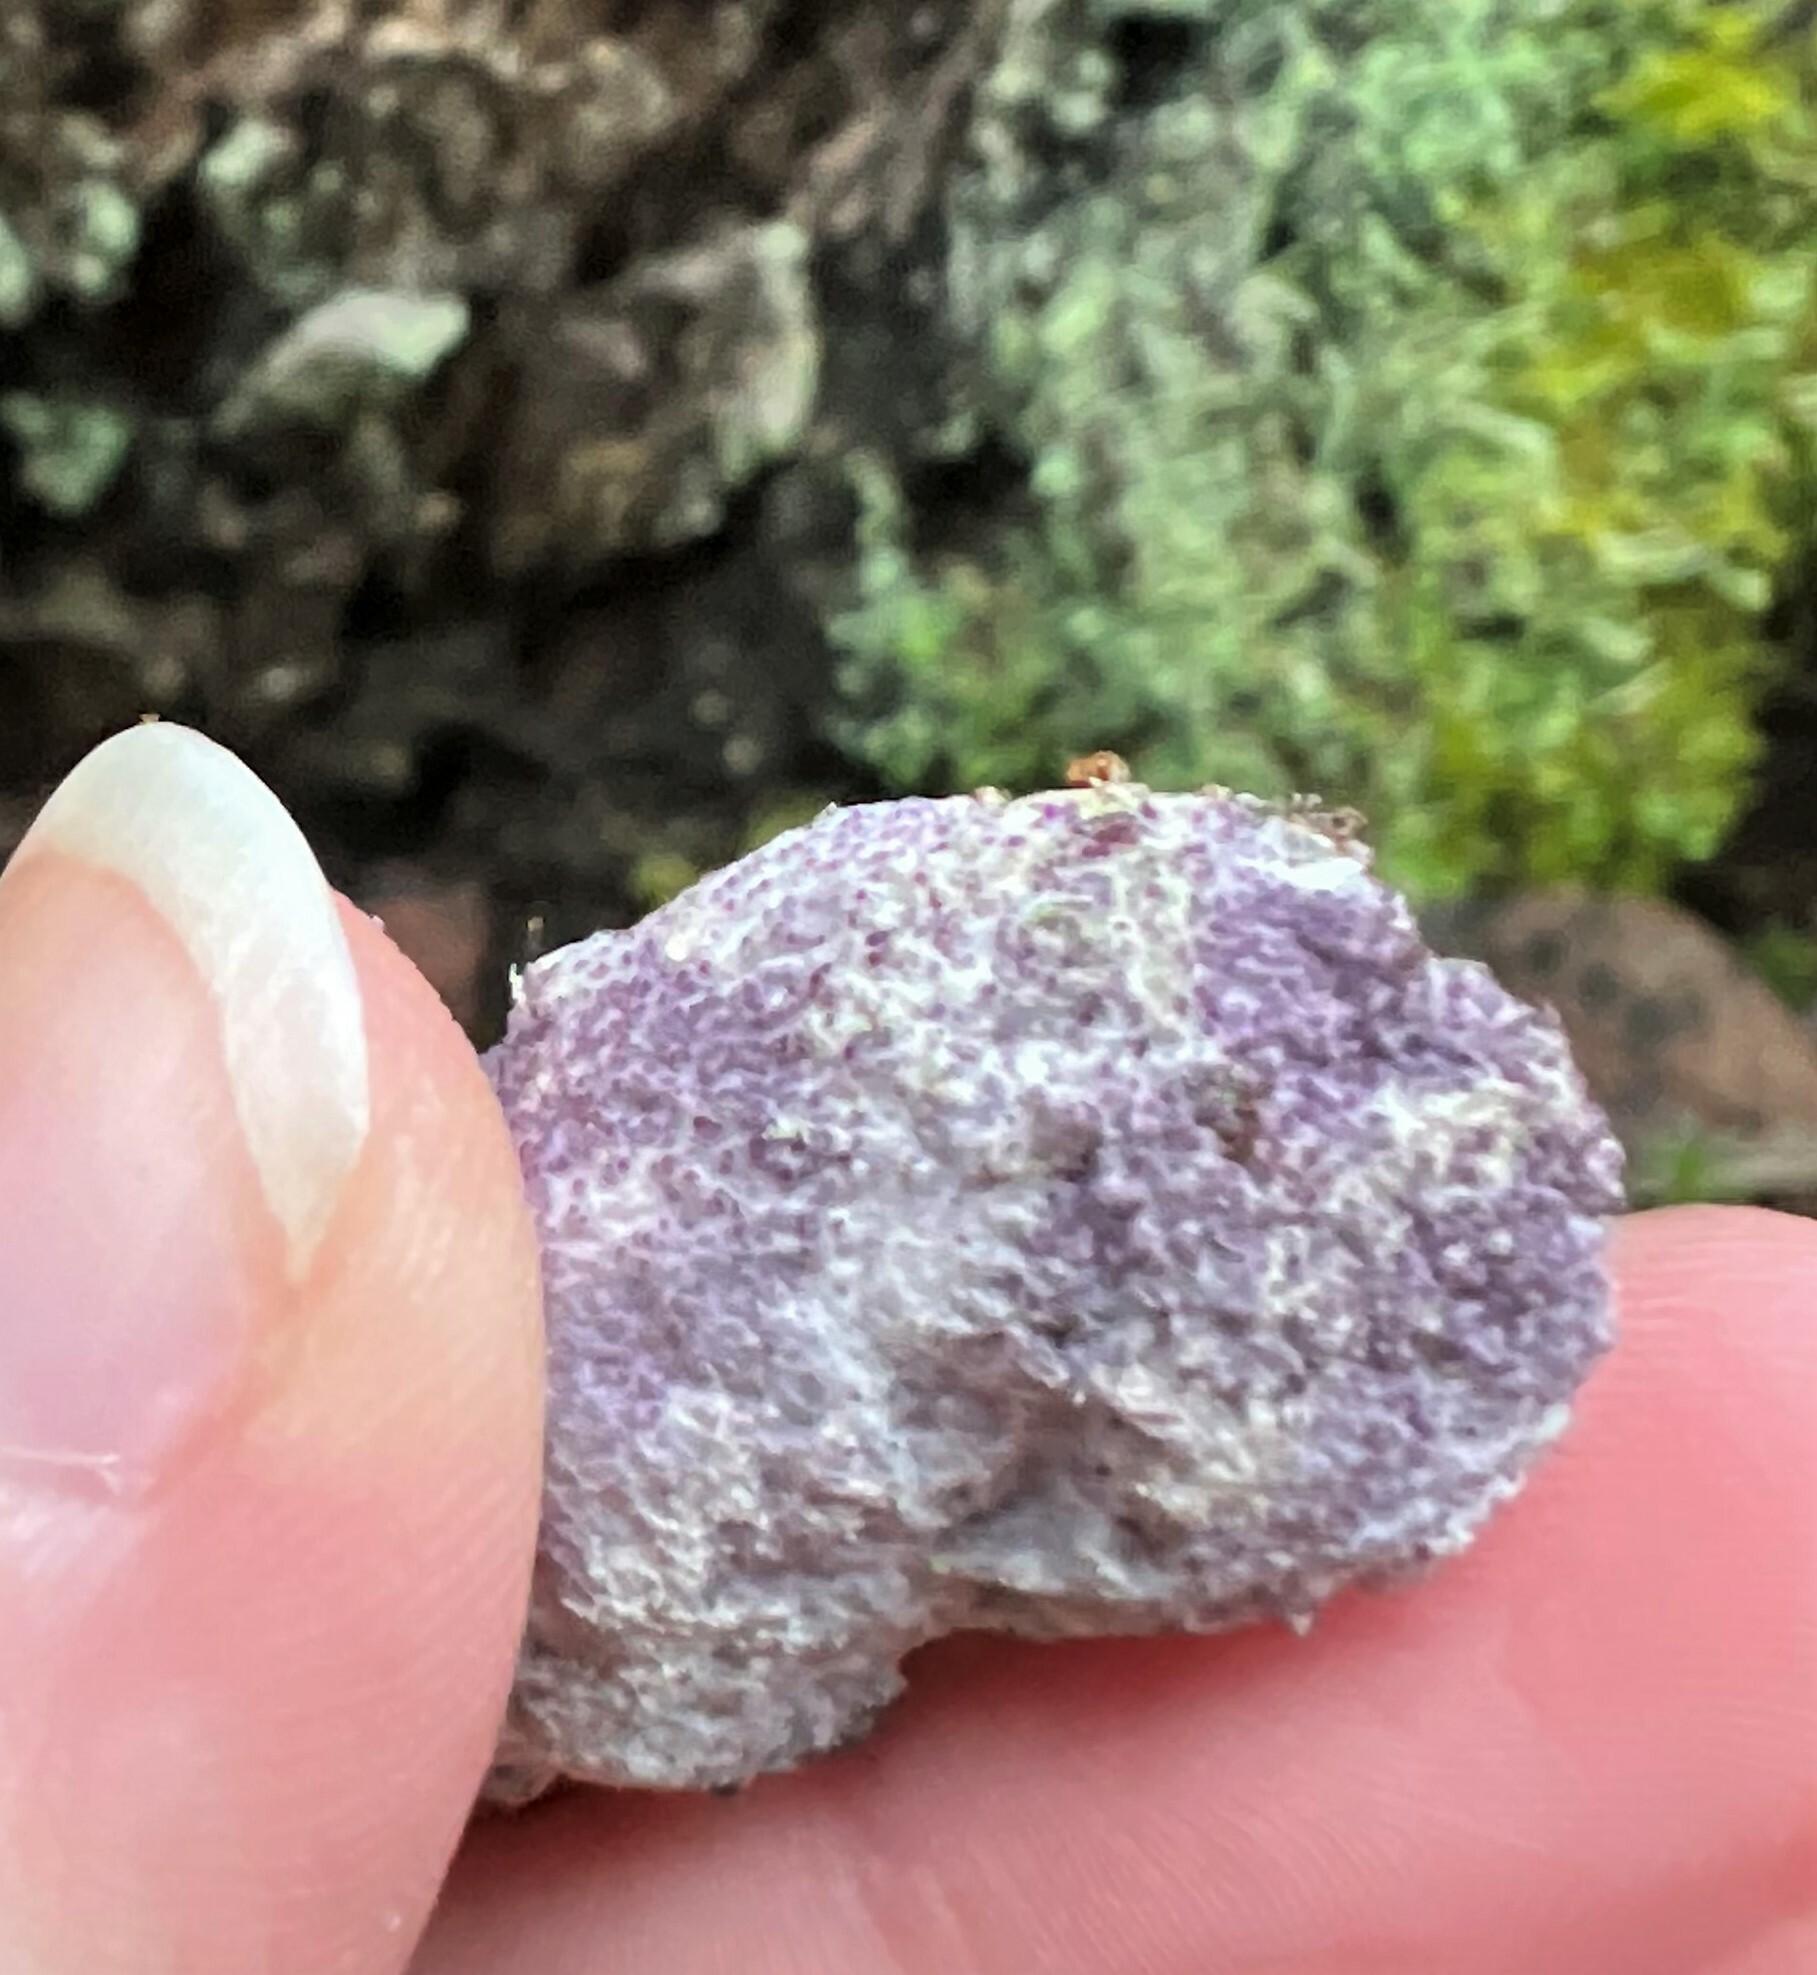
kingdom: Fungi
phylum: Ascomycota
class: Sordariomycetes
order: Hypocreales
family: Bionectriaceae
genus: Nectriopsis
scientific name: Nectriopsis violacea
